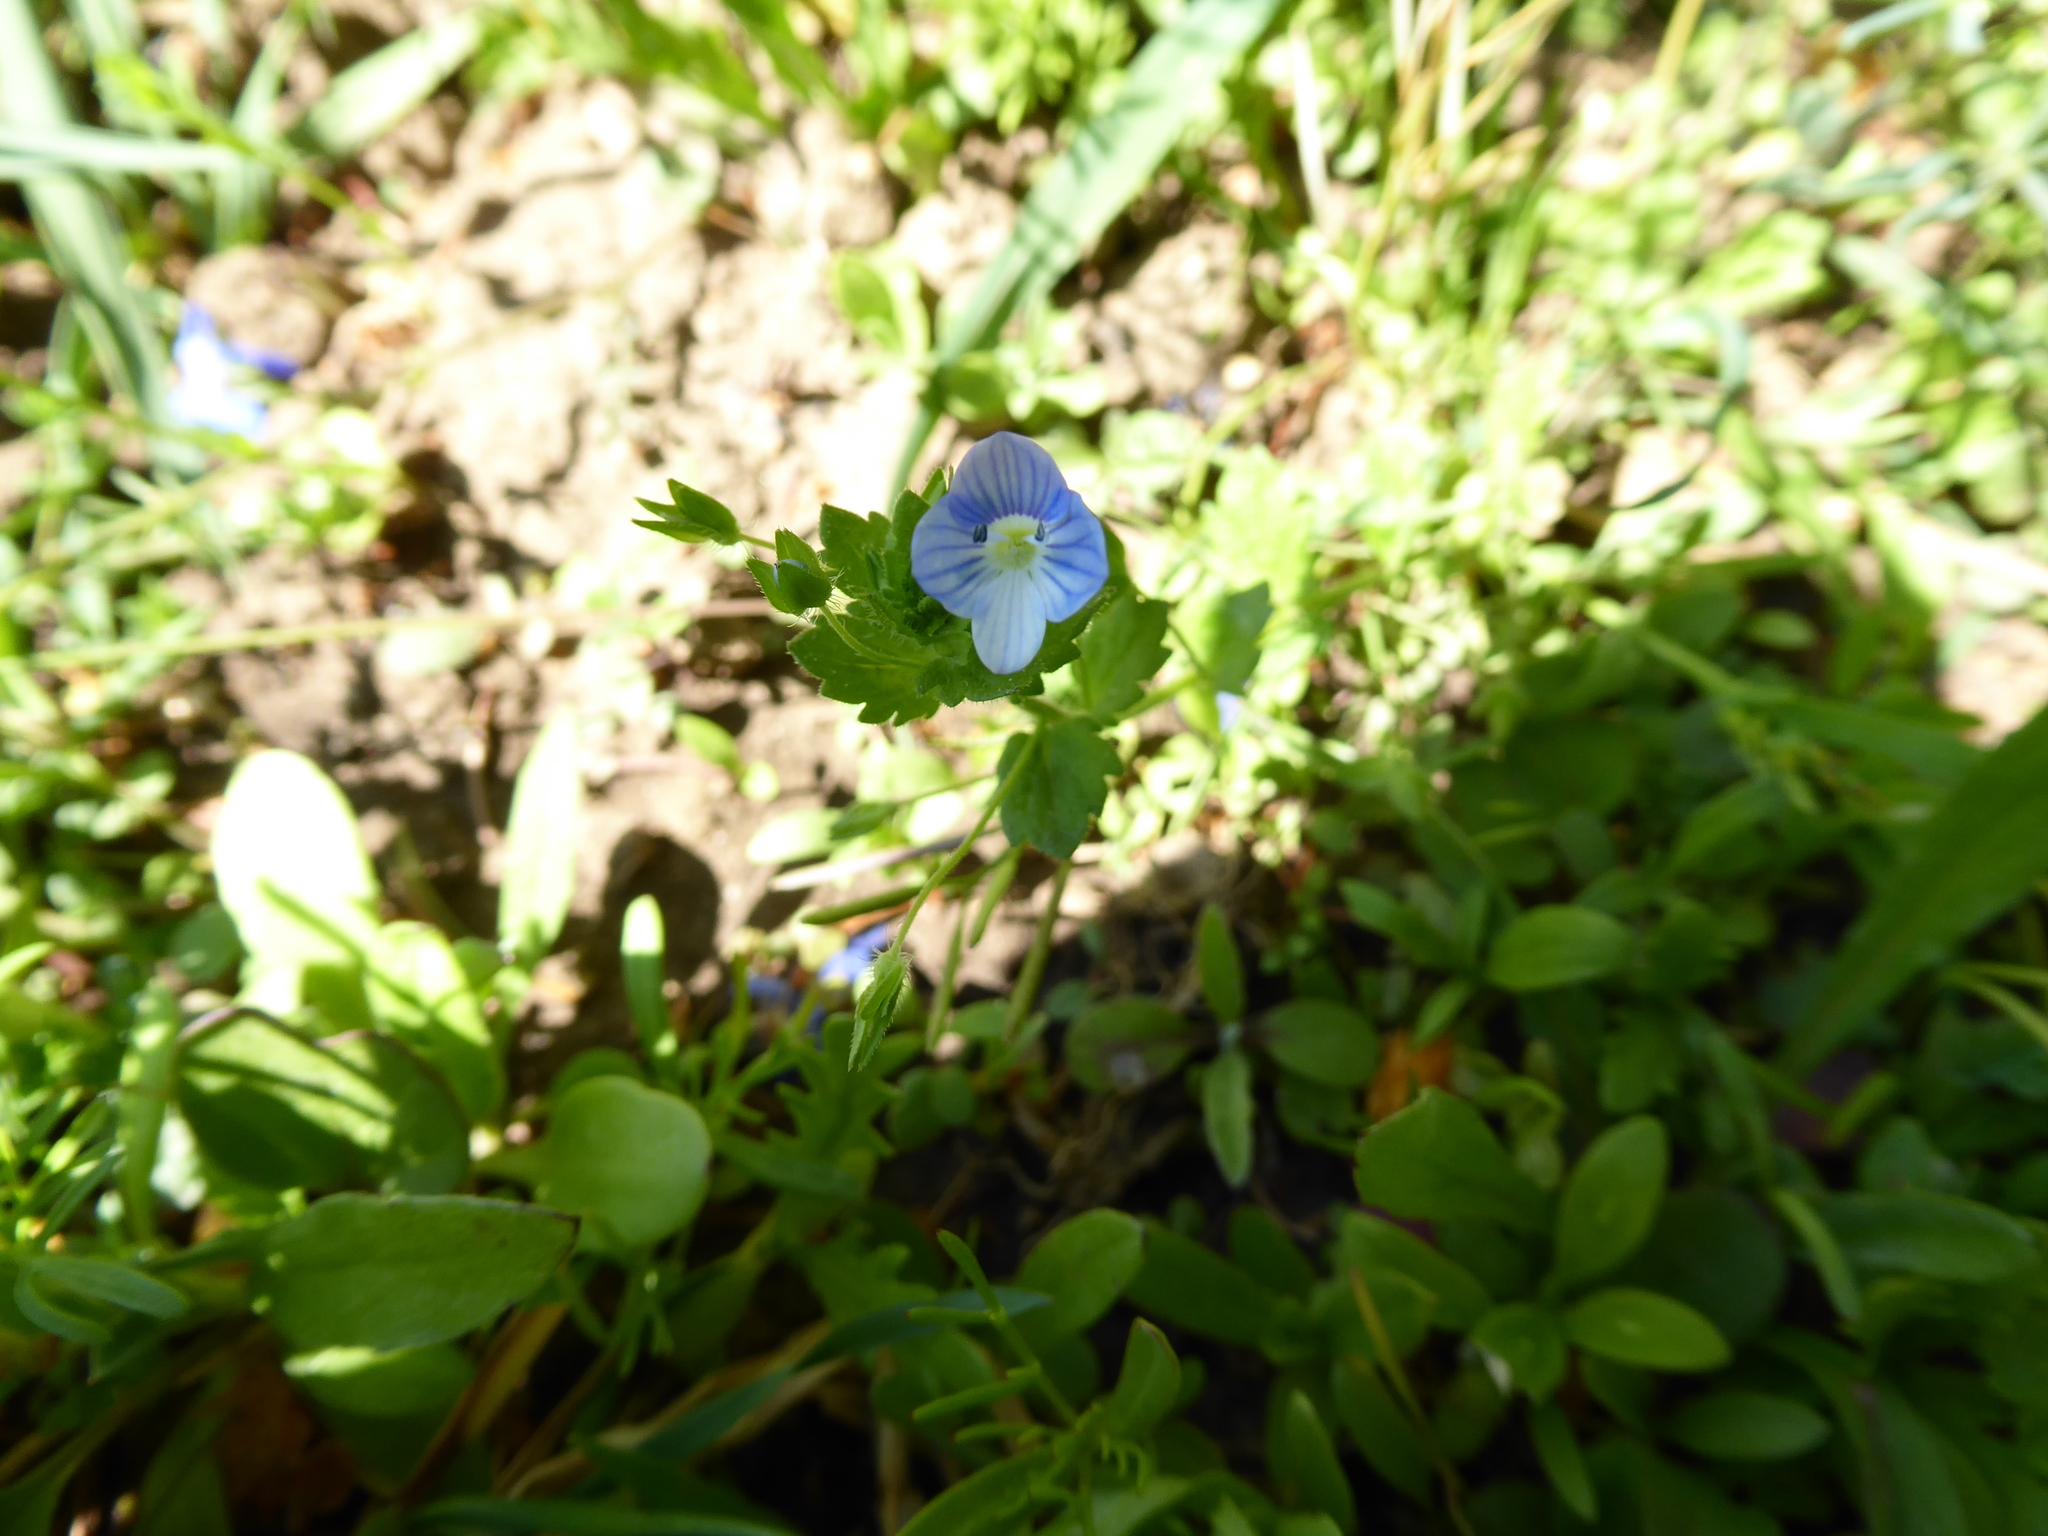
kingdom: Plantae
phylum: Tracheophyta
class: Magnoliopsida
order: Lamiales
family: Plantaginaceae
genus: Veronica
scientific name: Veronica persica
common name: Common field-speedwell
